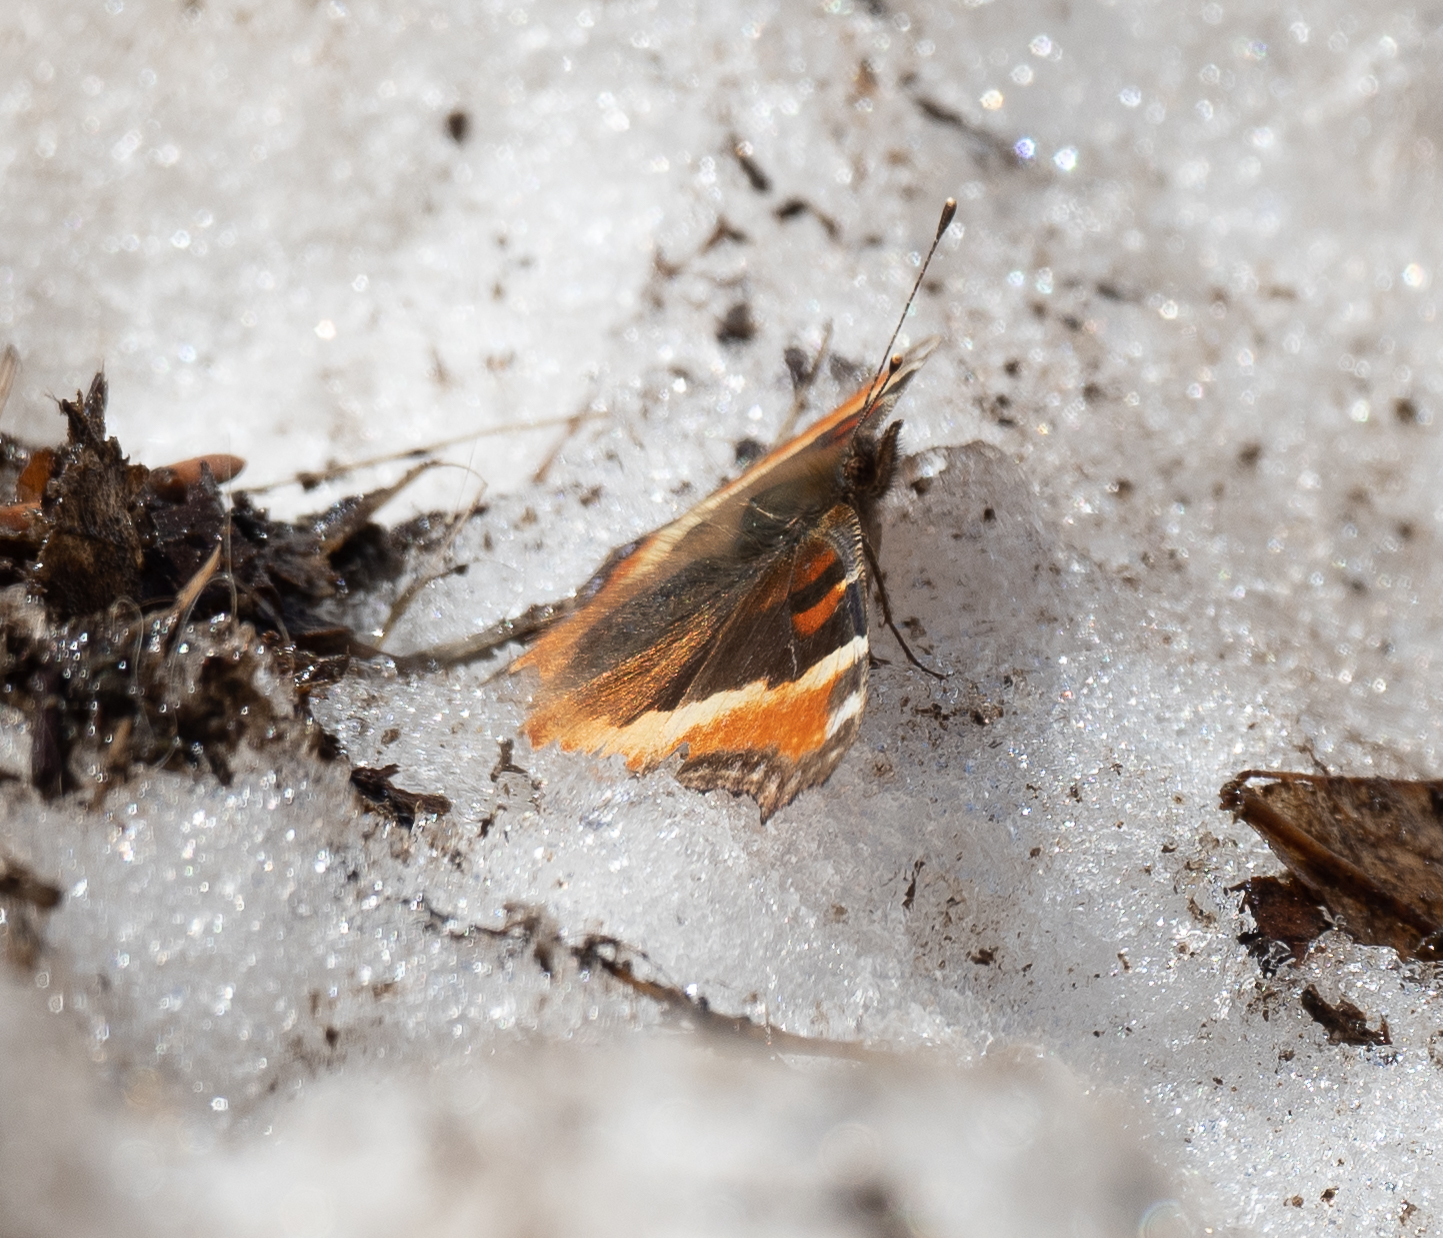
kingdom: Animalia
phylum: Arthropoda
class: Insecta
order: Lepidoptera
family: Nymphalidae
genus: Aglais
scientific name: Aglais milberti
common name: Milbert's tortoiseshell
